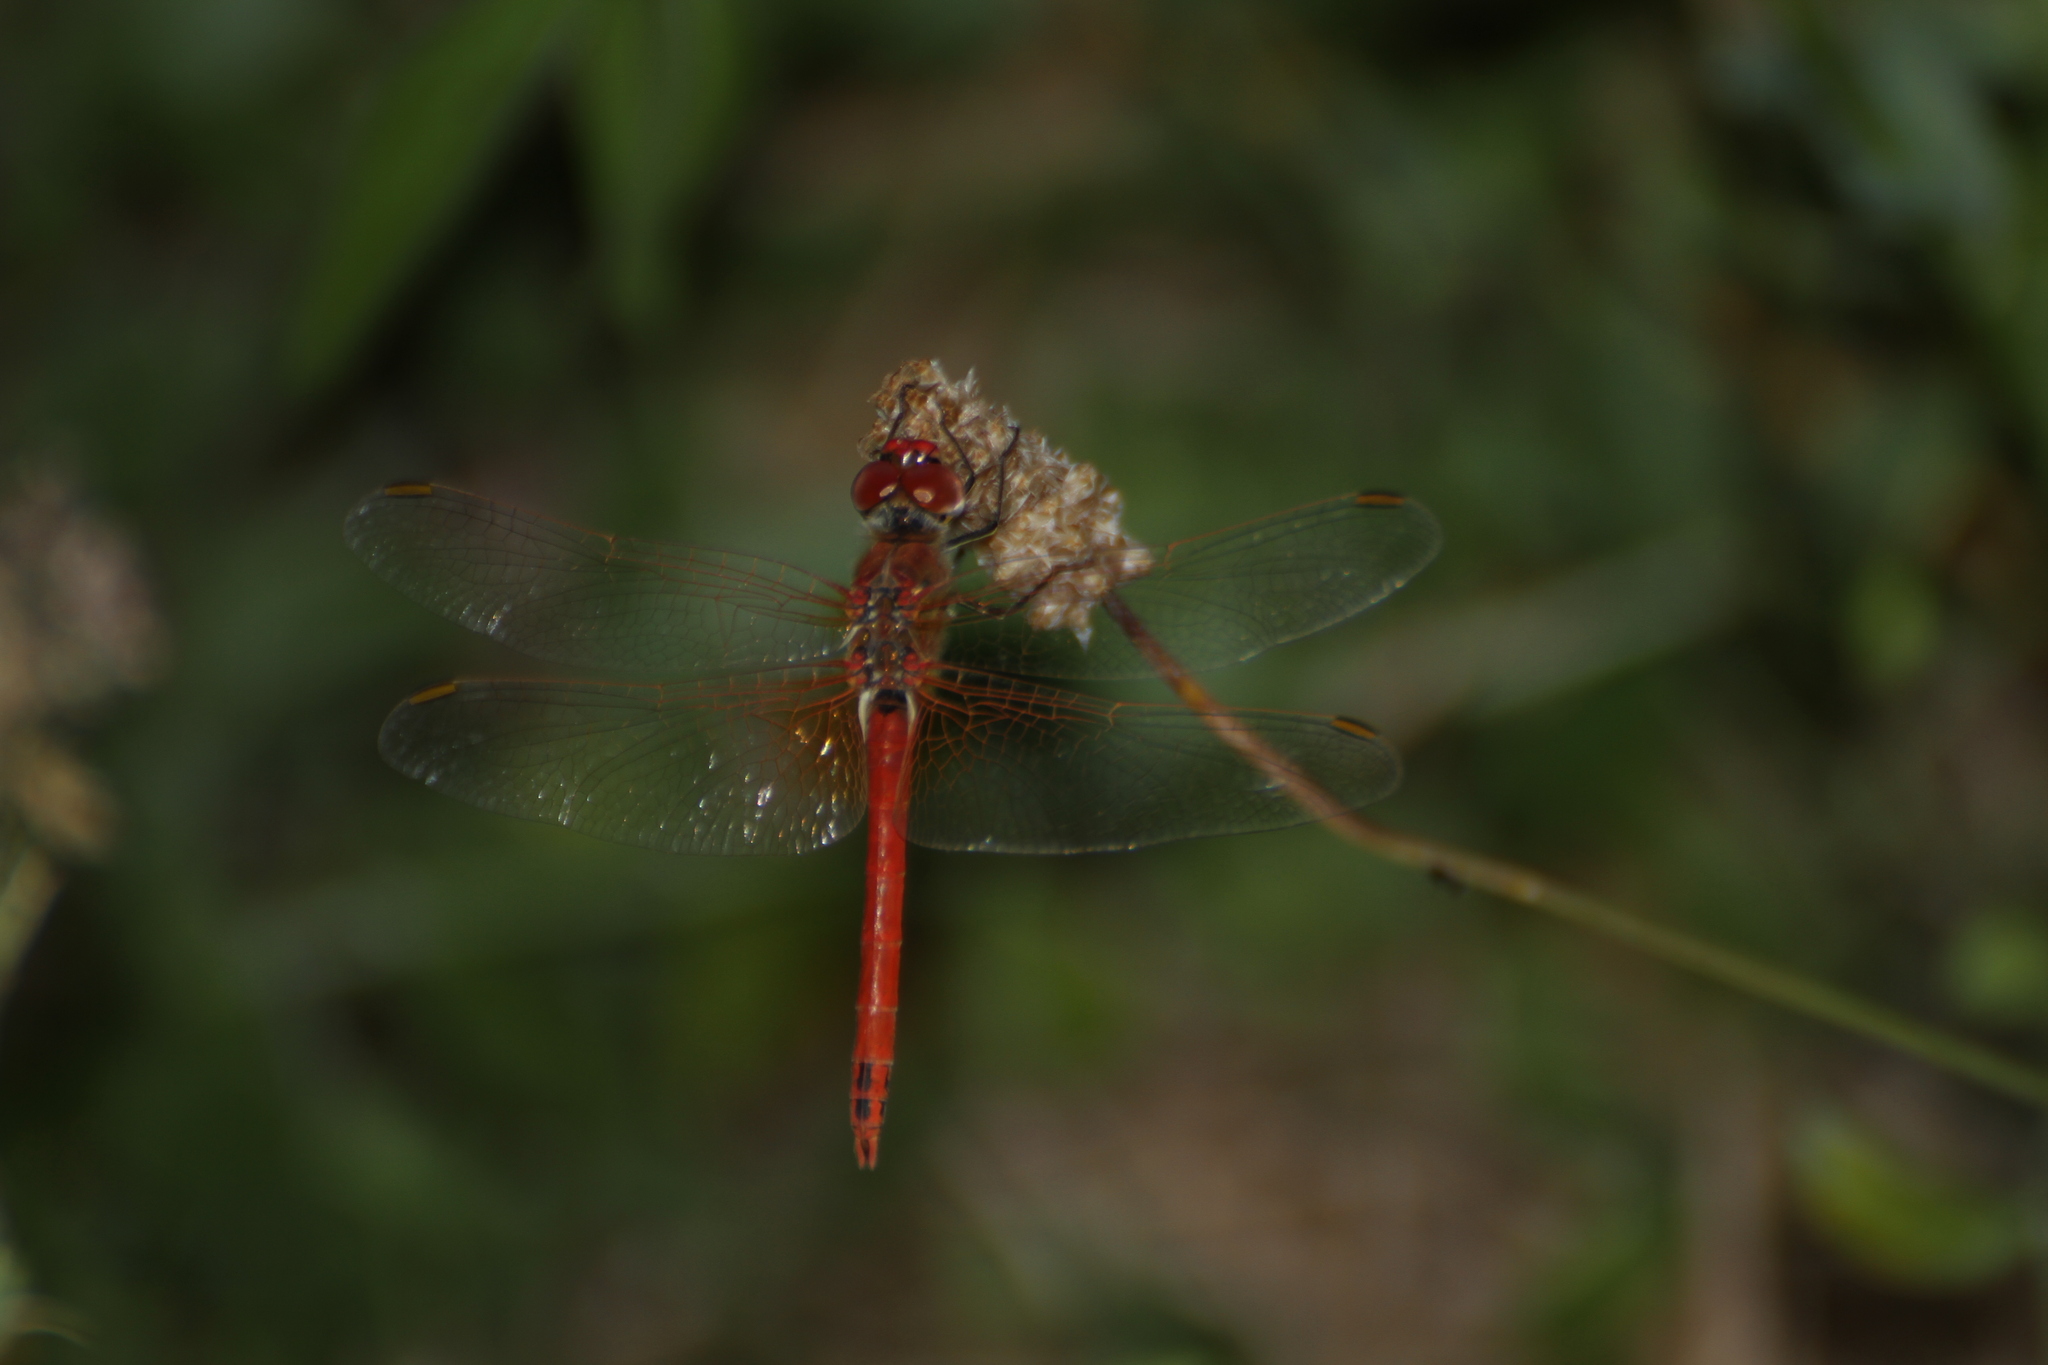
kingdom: Animalia
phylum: Arthropoda
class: Insecta
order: Odonata
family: Libellulidae
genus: Sympetrum
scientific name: Sympetrum fonscolombii
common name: Red-veined darter
